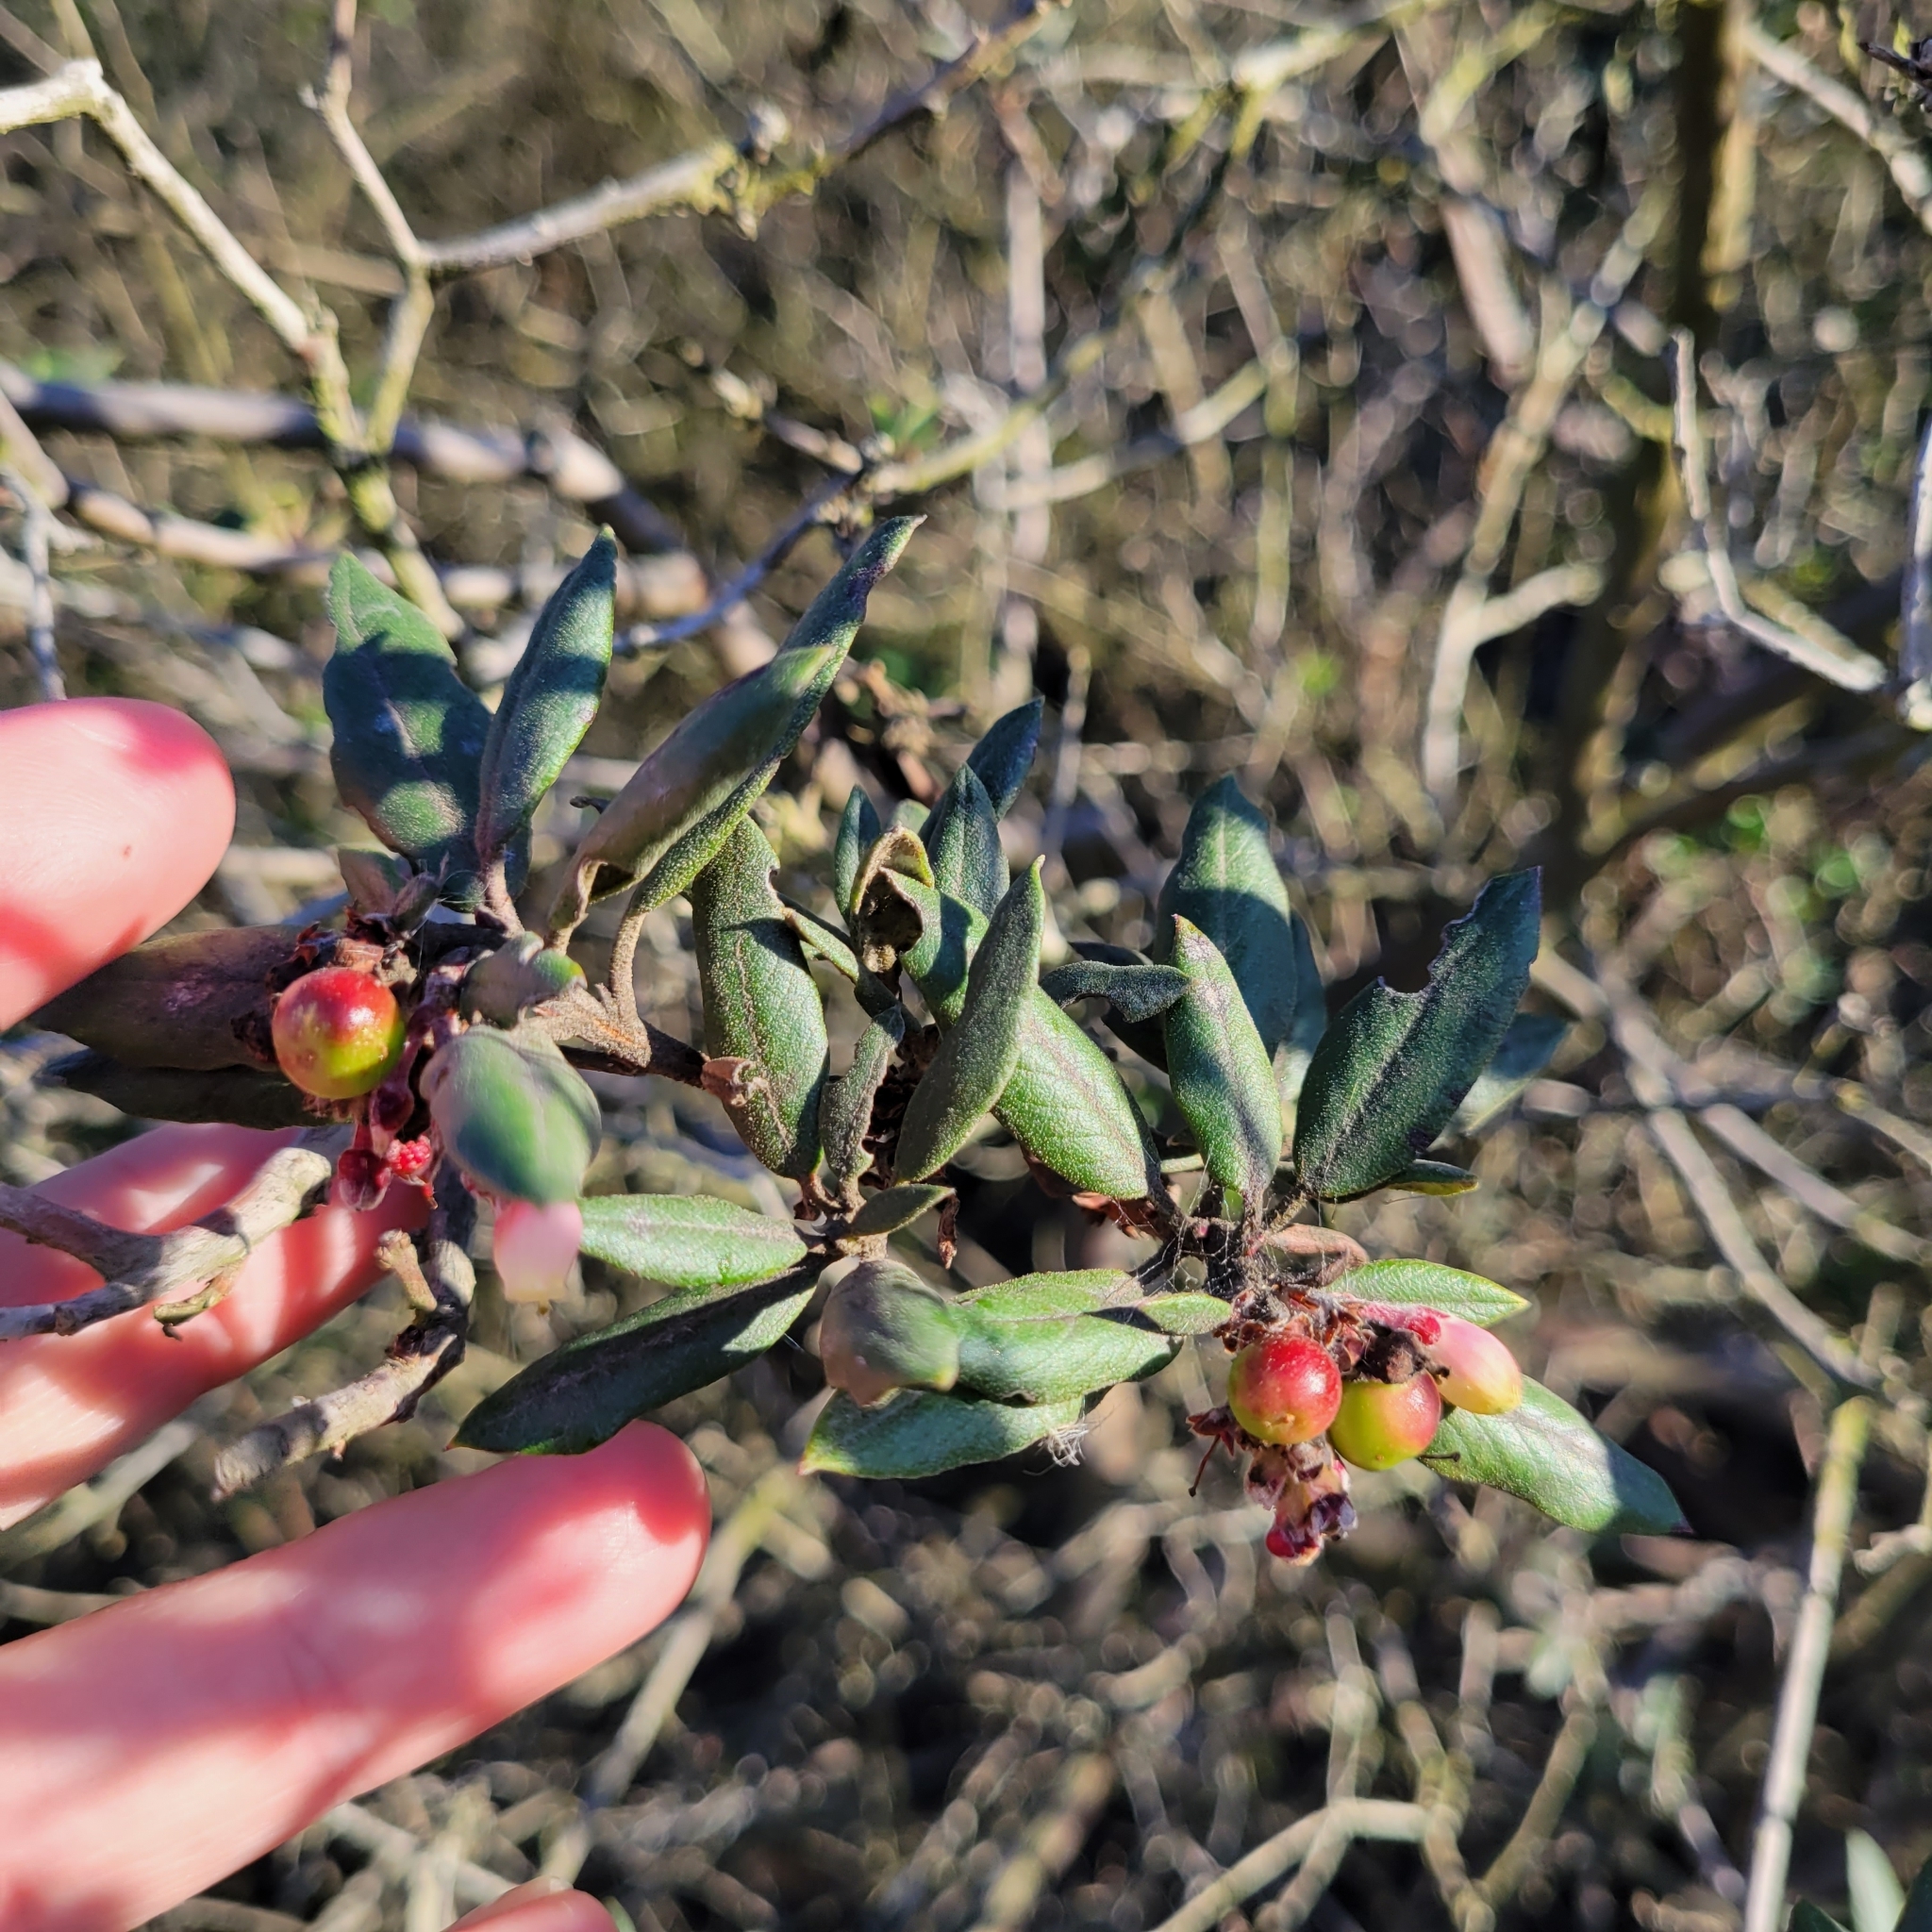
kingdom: Plantae
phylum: Tracheophyta
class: Magnoliopsida
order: Ericales
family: Ericaceae
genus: Arctostaphylos
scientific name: Arctostaphylos bicolor
